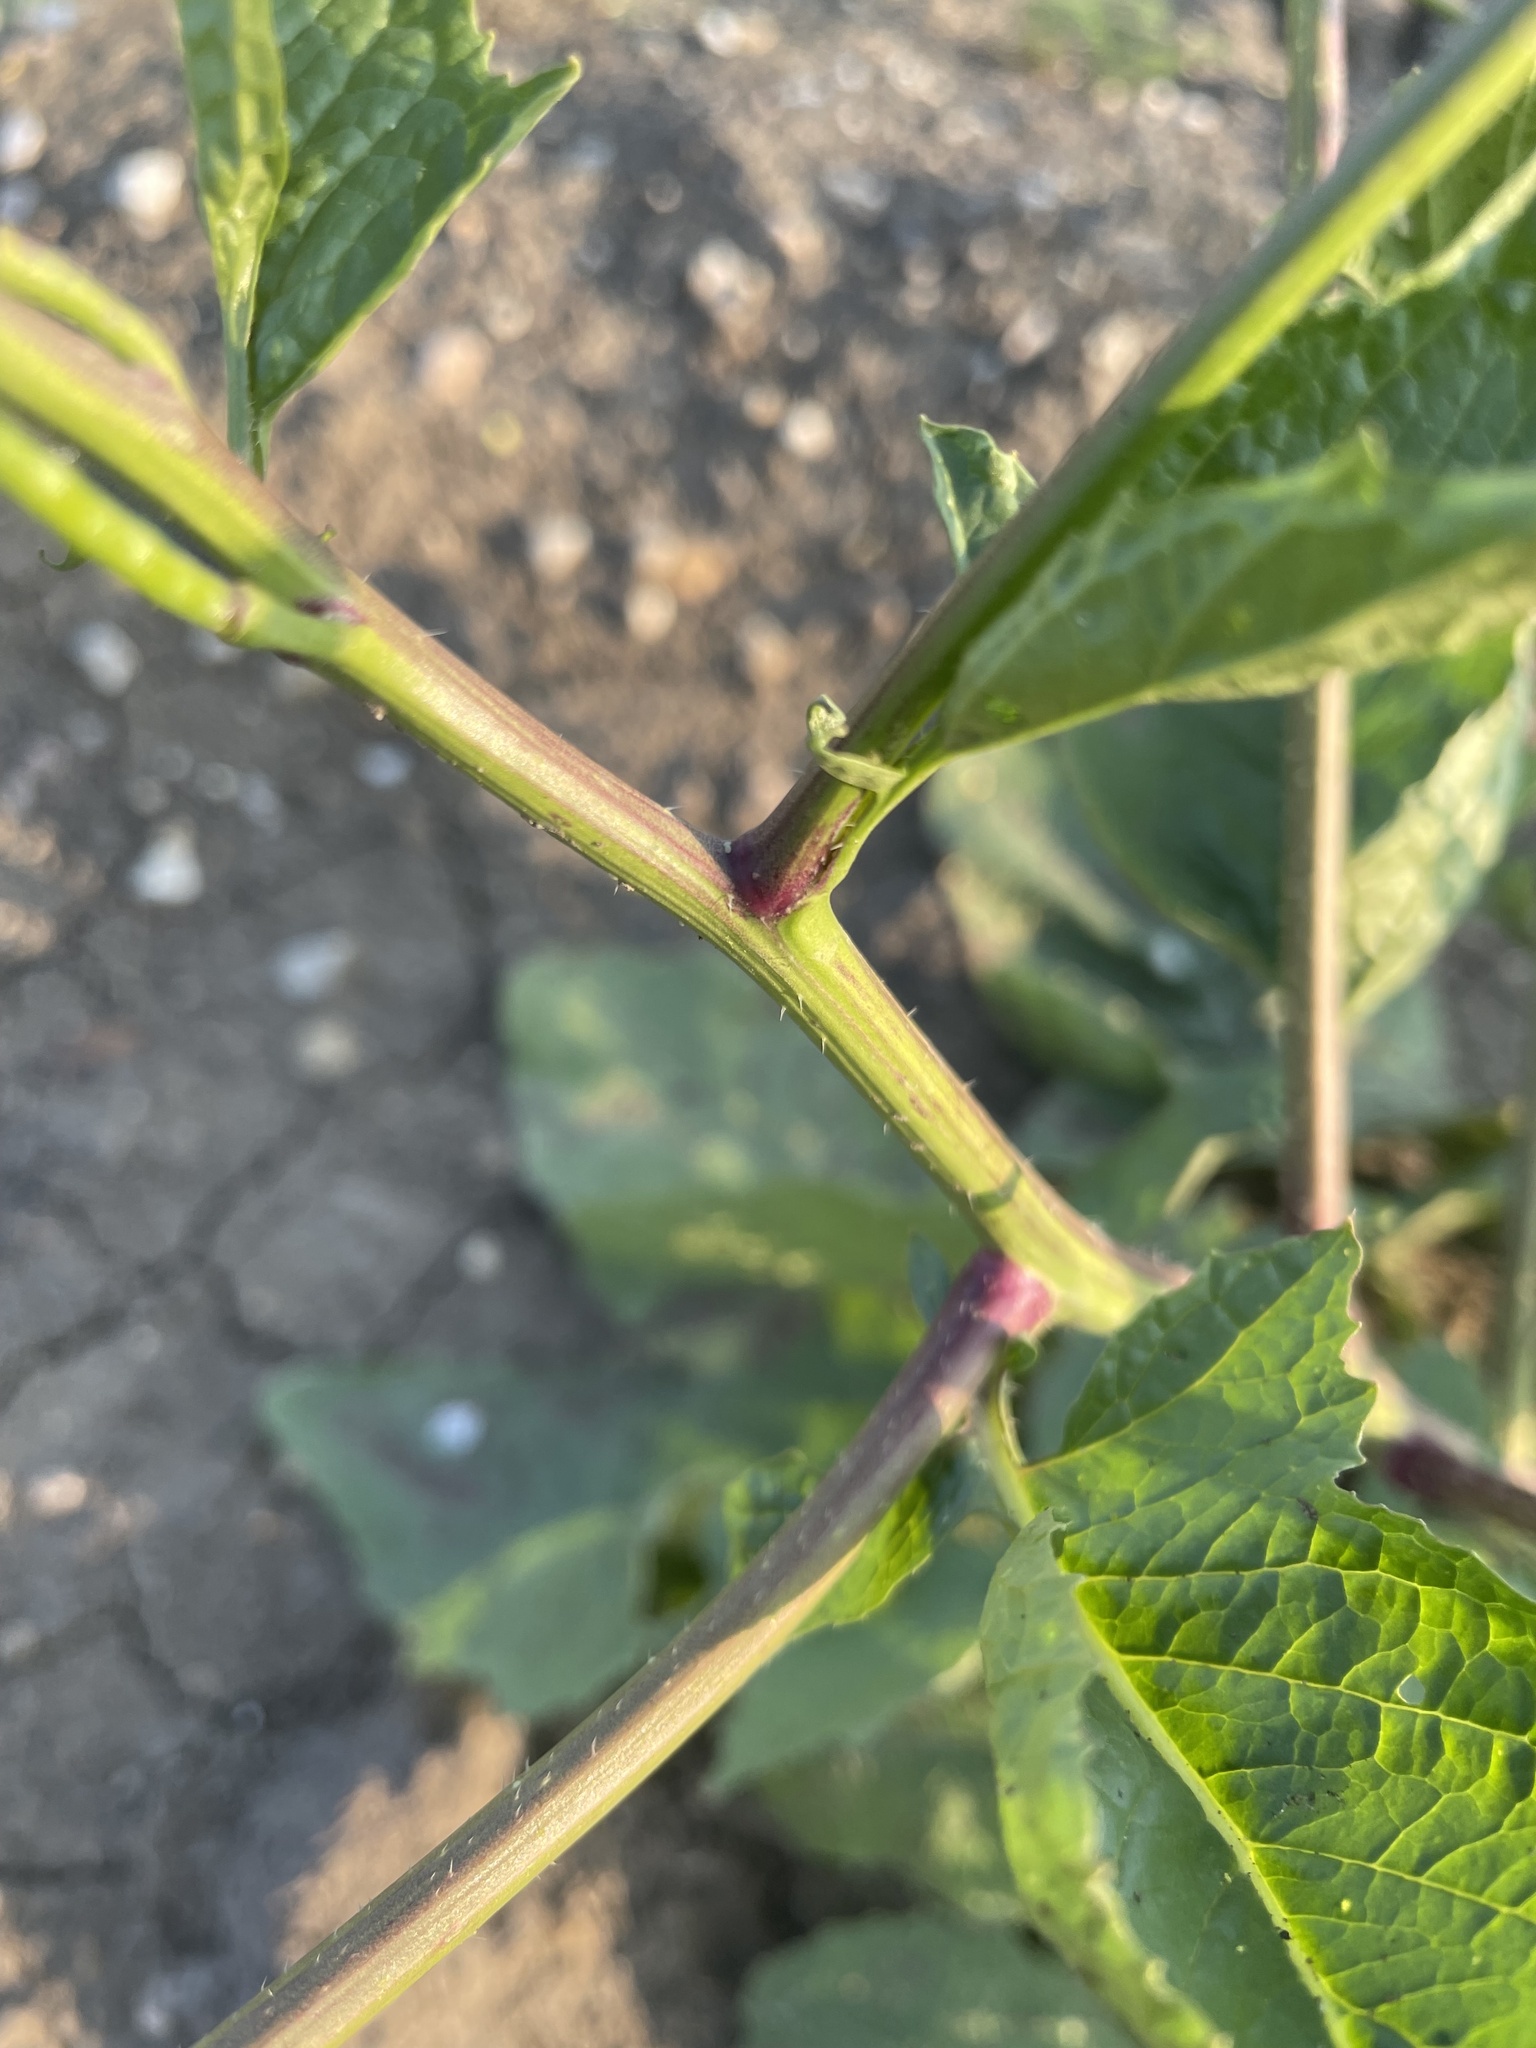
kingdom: Plantae
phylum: Tracheophyta
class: Magnoliopsida
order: Brassicales
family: Brassicaceae
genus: Sinapis
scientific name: Sinapis arvensis
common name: Charlock
